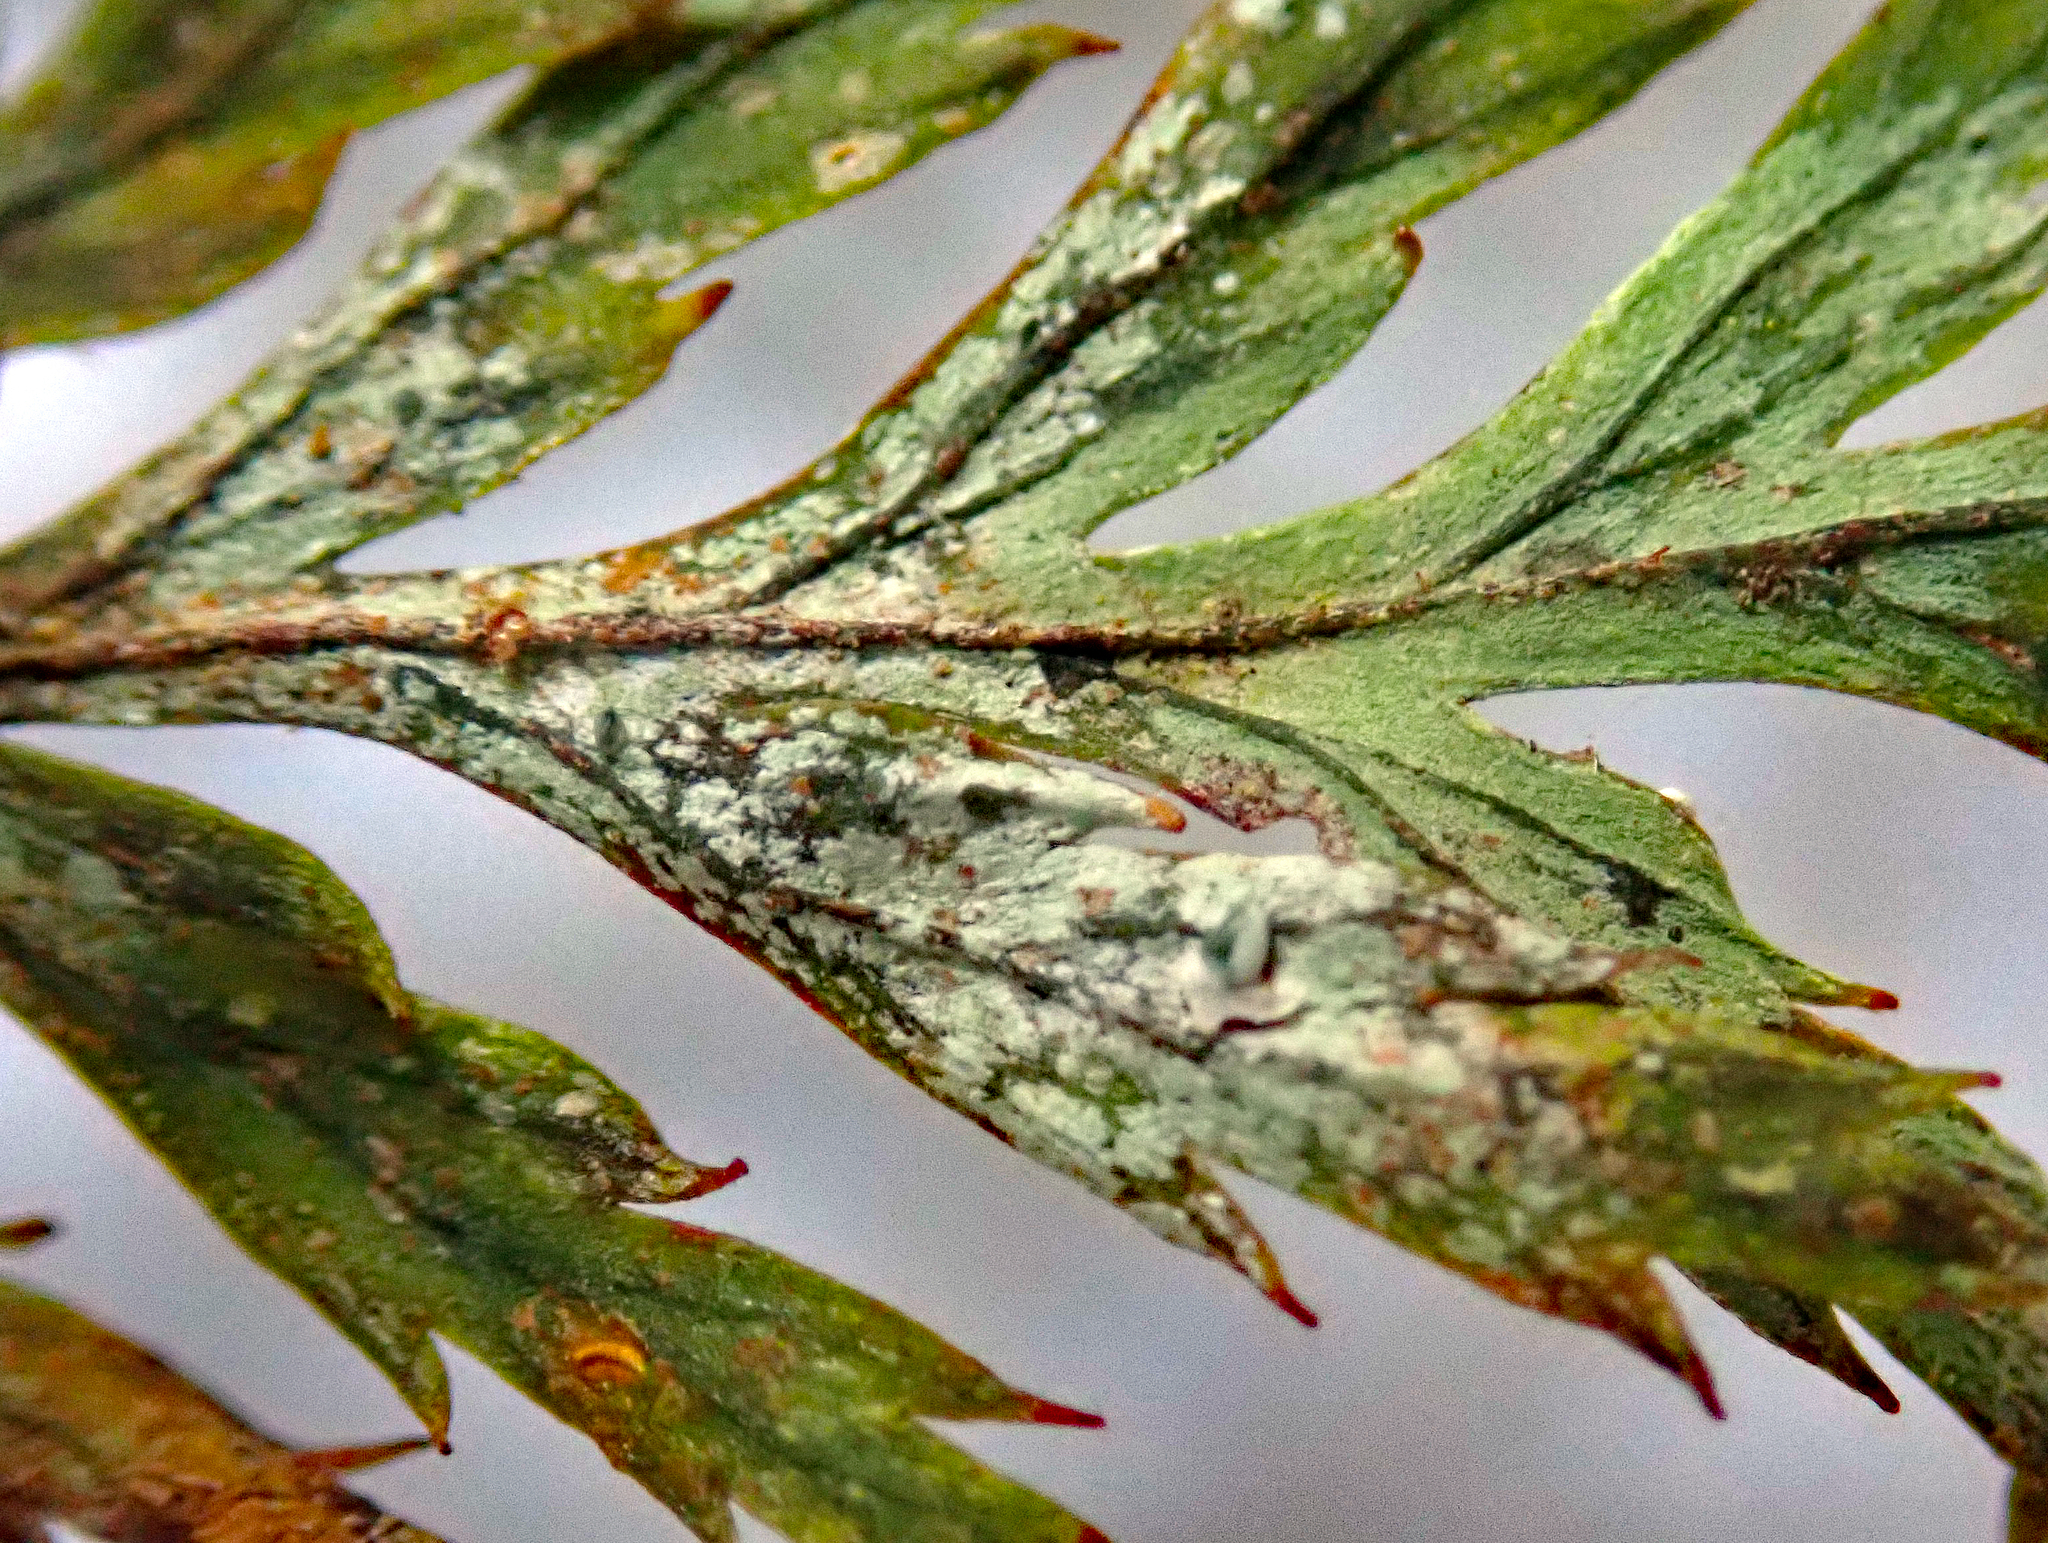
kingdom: Fungi
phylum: Ascomycota
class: Lecanoromycetes
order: Lecanorales
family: Byssolomataceae
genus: Badimiella
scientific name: Badimiella pteridophila
